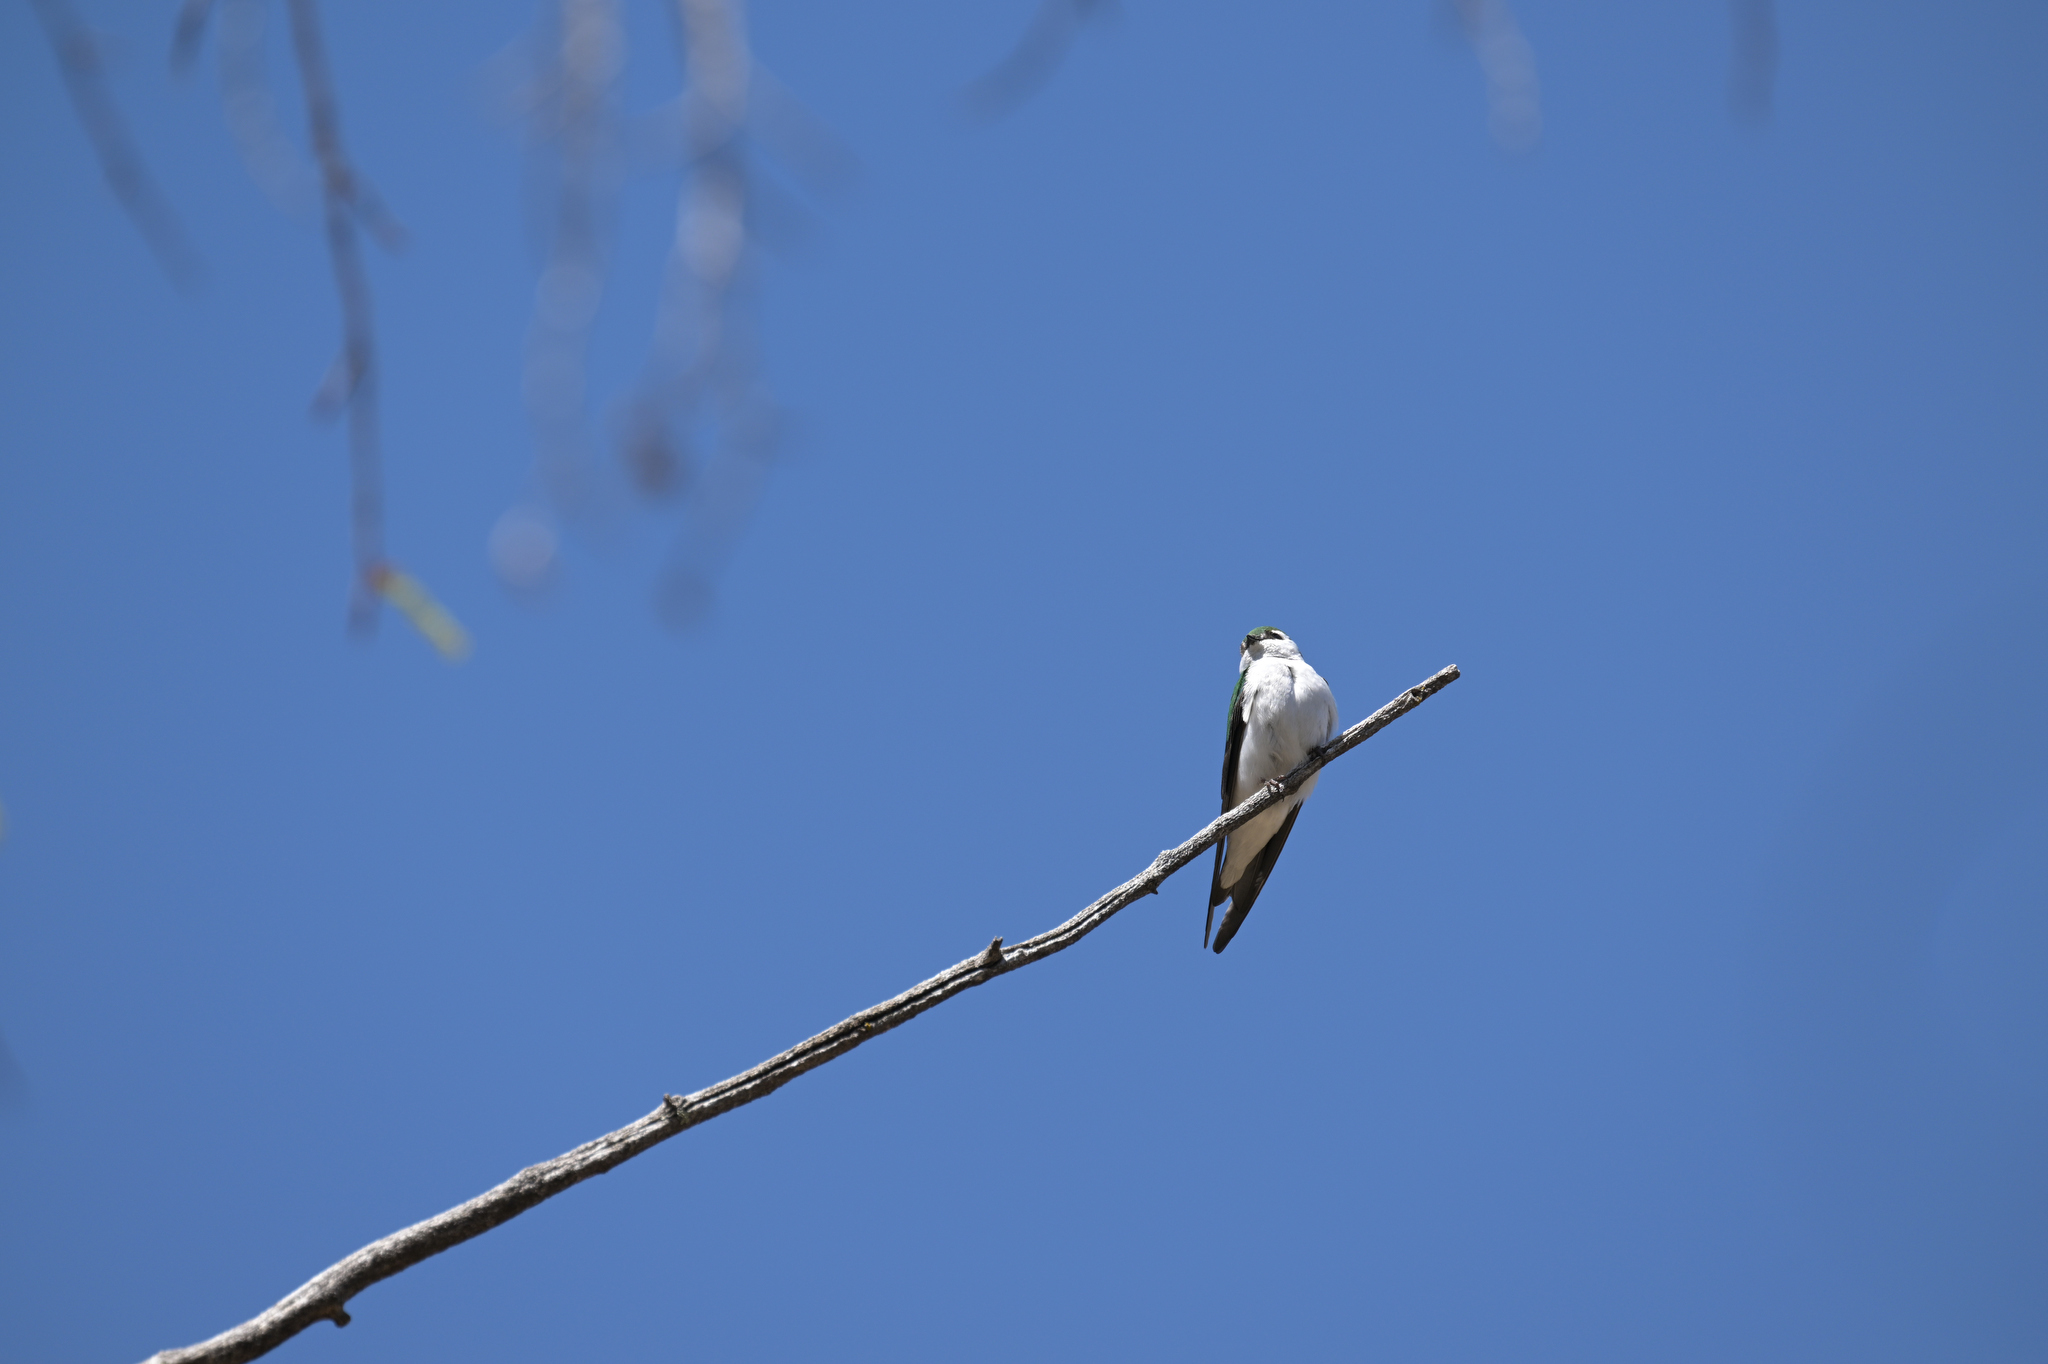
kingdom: Animalia
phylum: Chordata
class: Aves
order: Passeriformes
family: Hirundinidae
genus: Tachycineta
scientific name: Tachycineta thalassina
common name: Violet-green swallow
